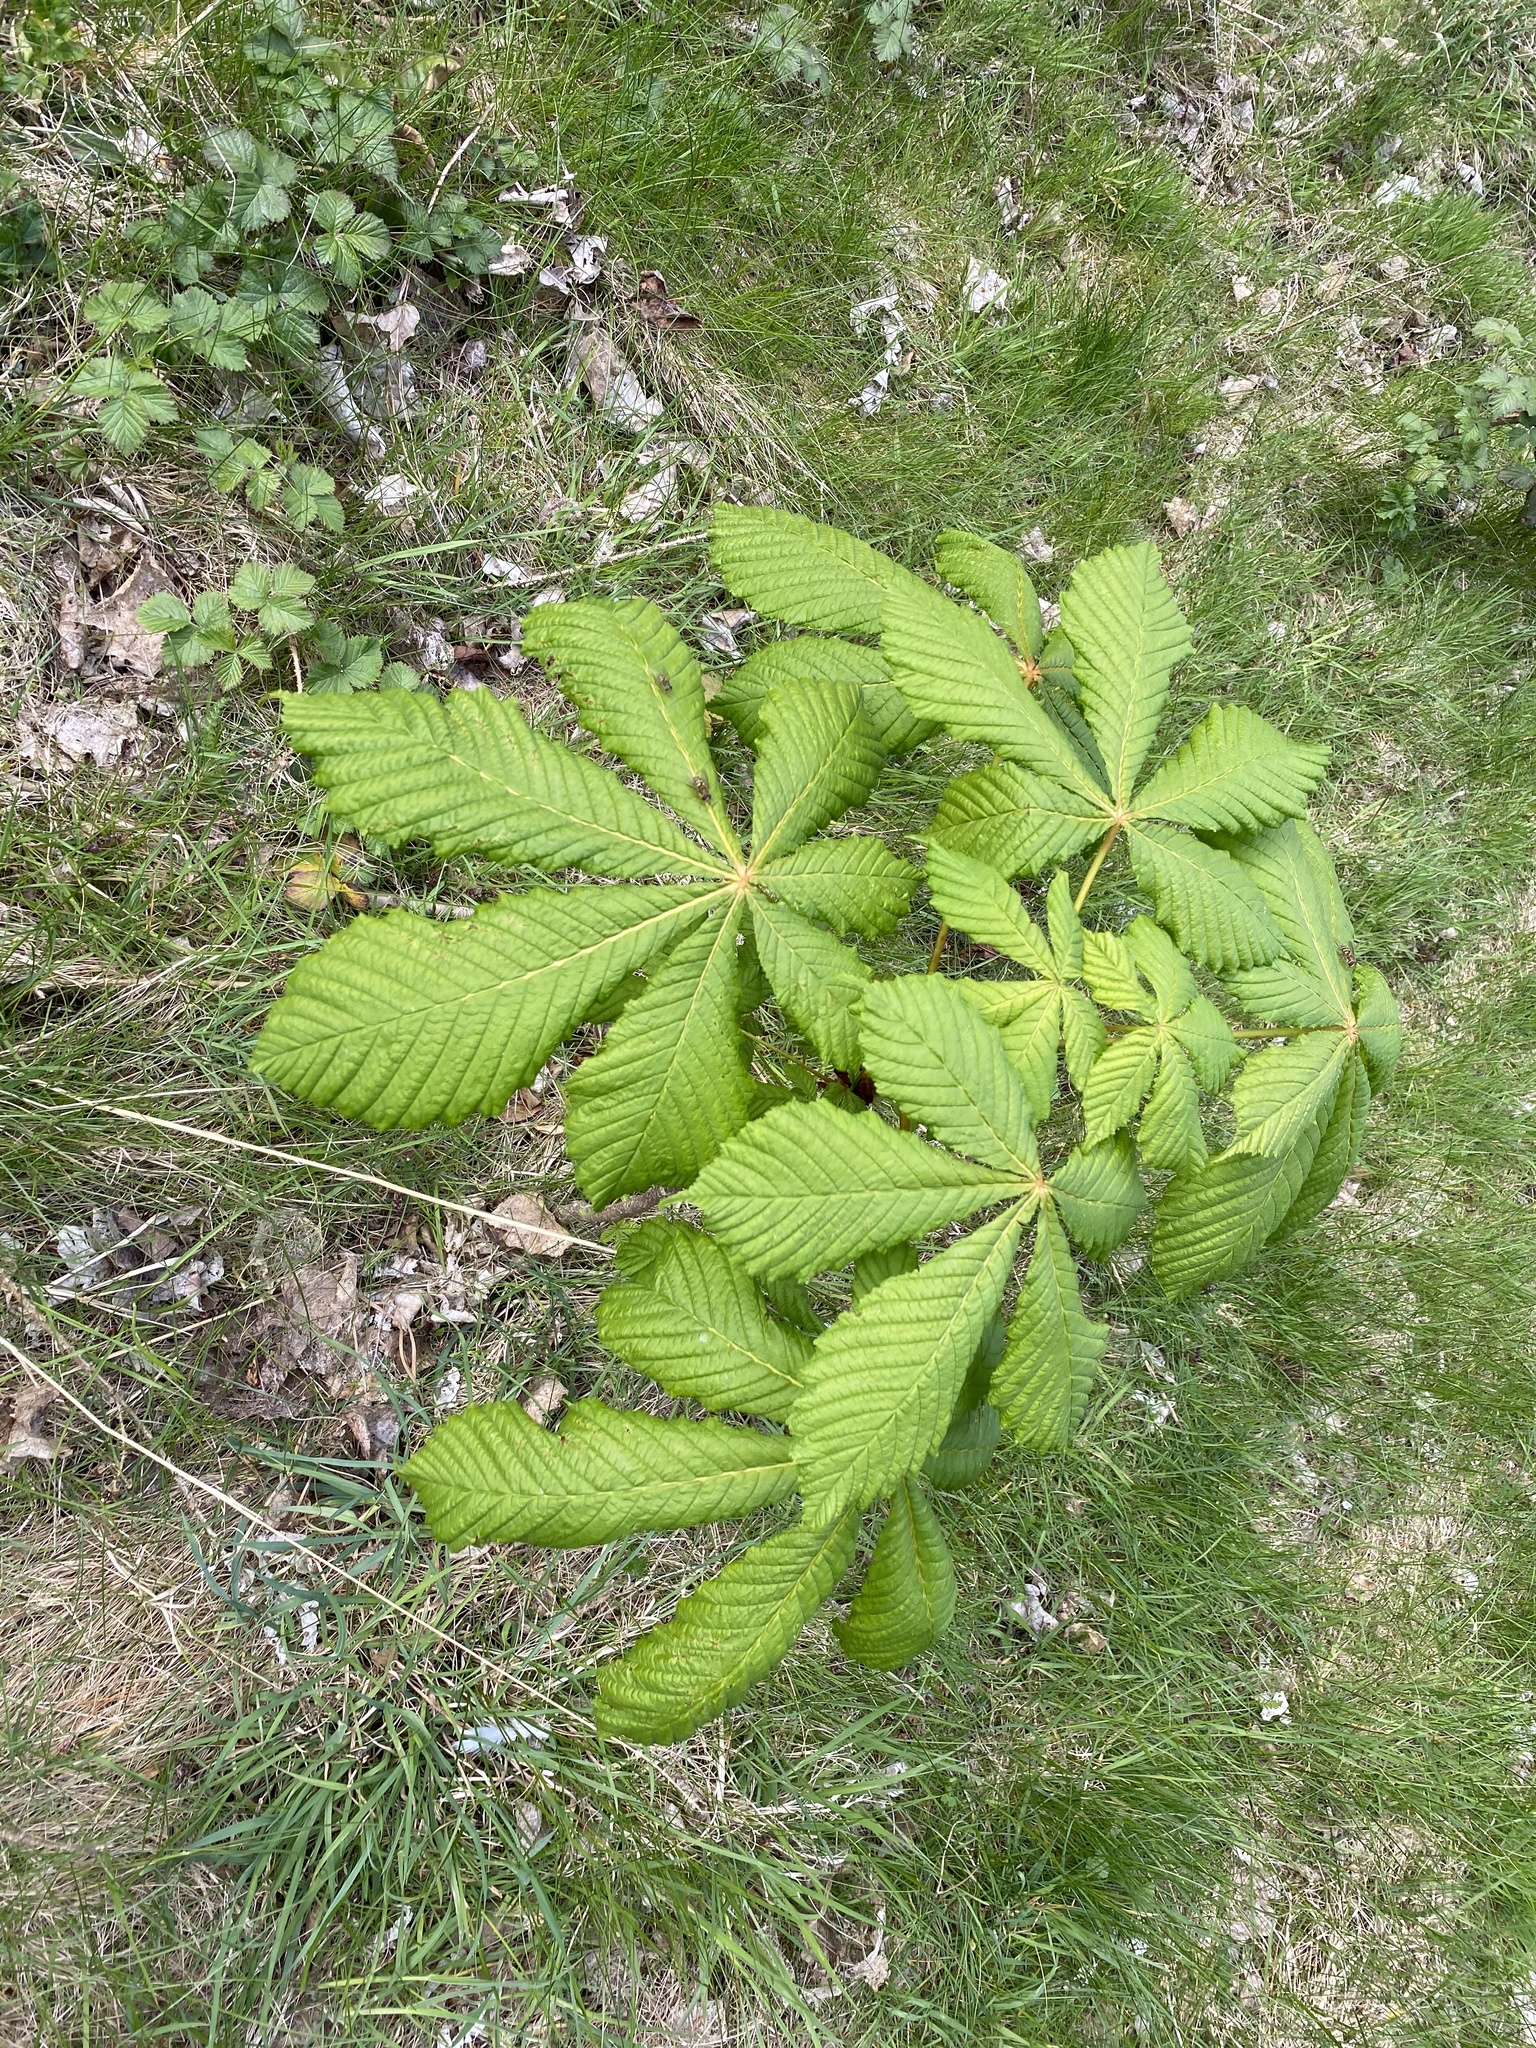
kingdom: Plantae
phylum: Tracheophyta
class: Magnoliopsida
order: Sapindales
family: Sapindaceae
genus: Aesculus
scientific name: Aesculus hippocastanum
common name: Horse-chestnut
